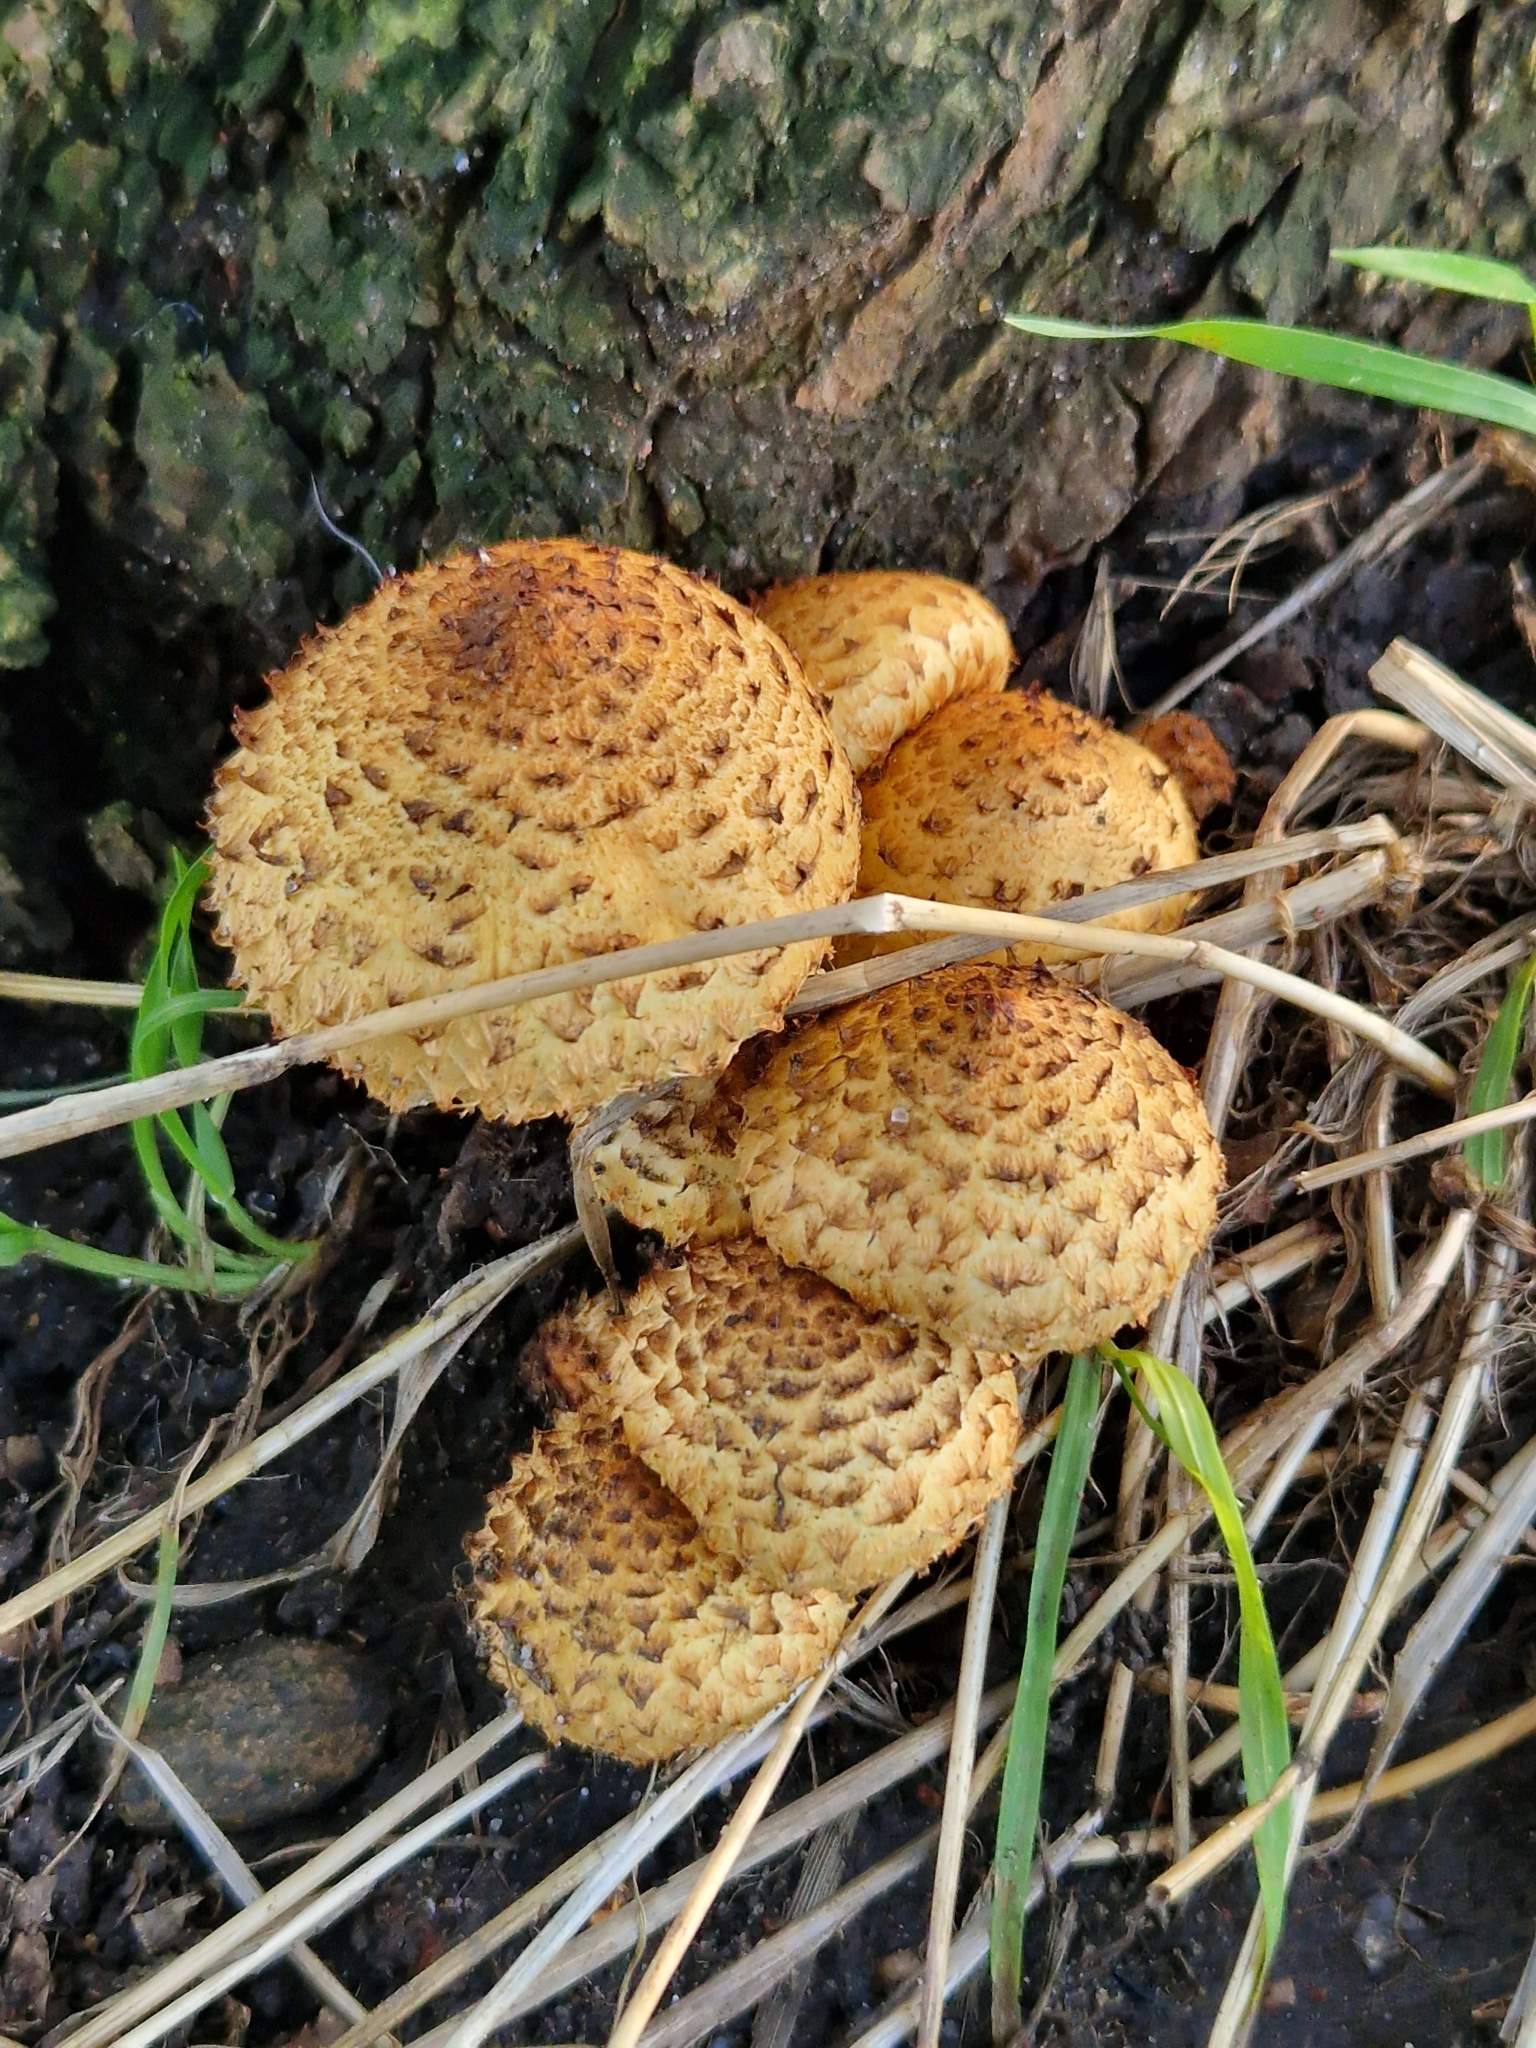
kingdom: Fungi
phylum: Basidiomycota
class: Agaricomycetes
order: Agaricales
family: Strophariaceae
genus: Pholiota
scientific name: Pholiota squarrosa
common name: Shaggy pholiota
